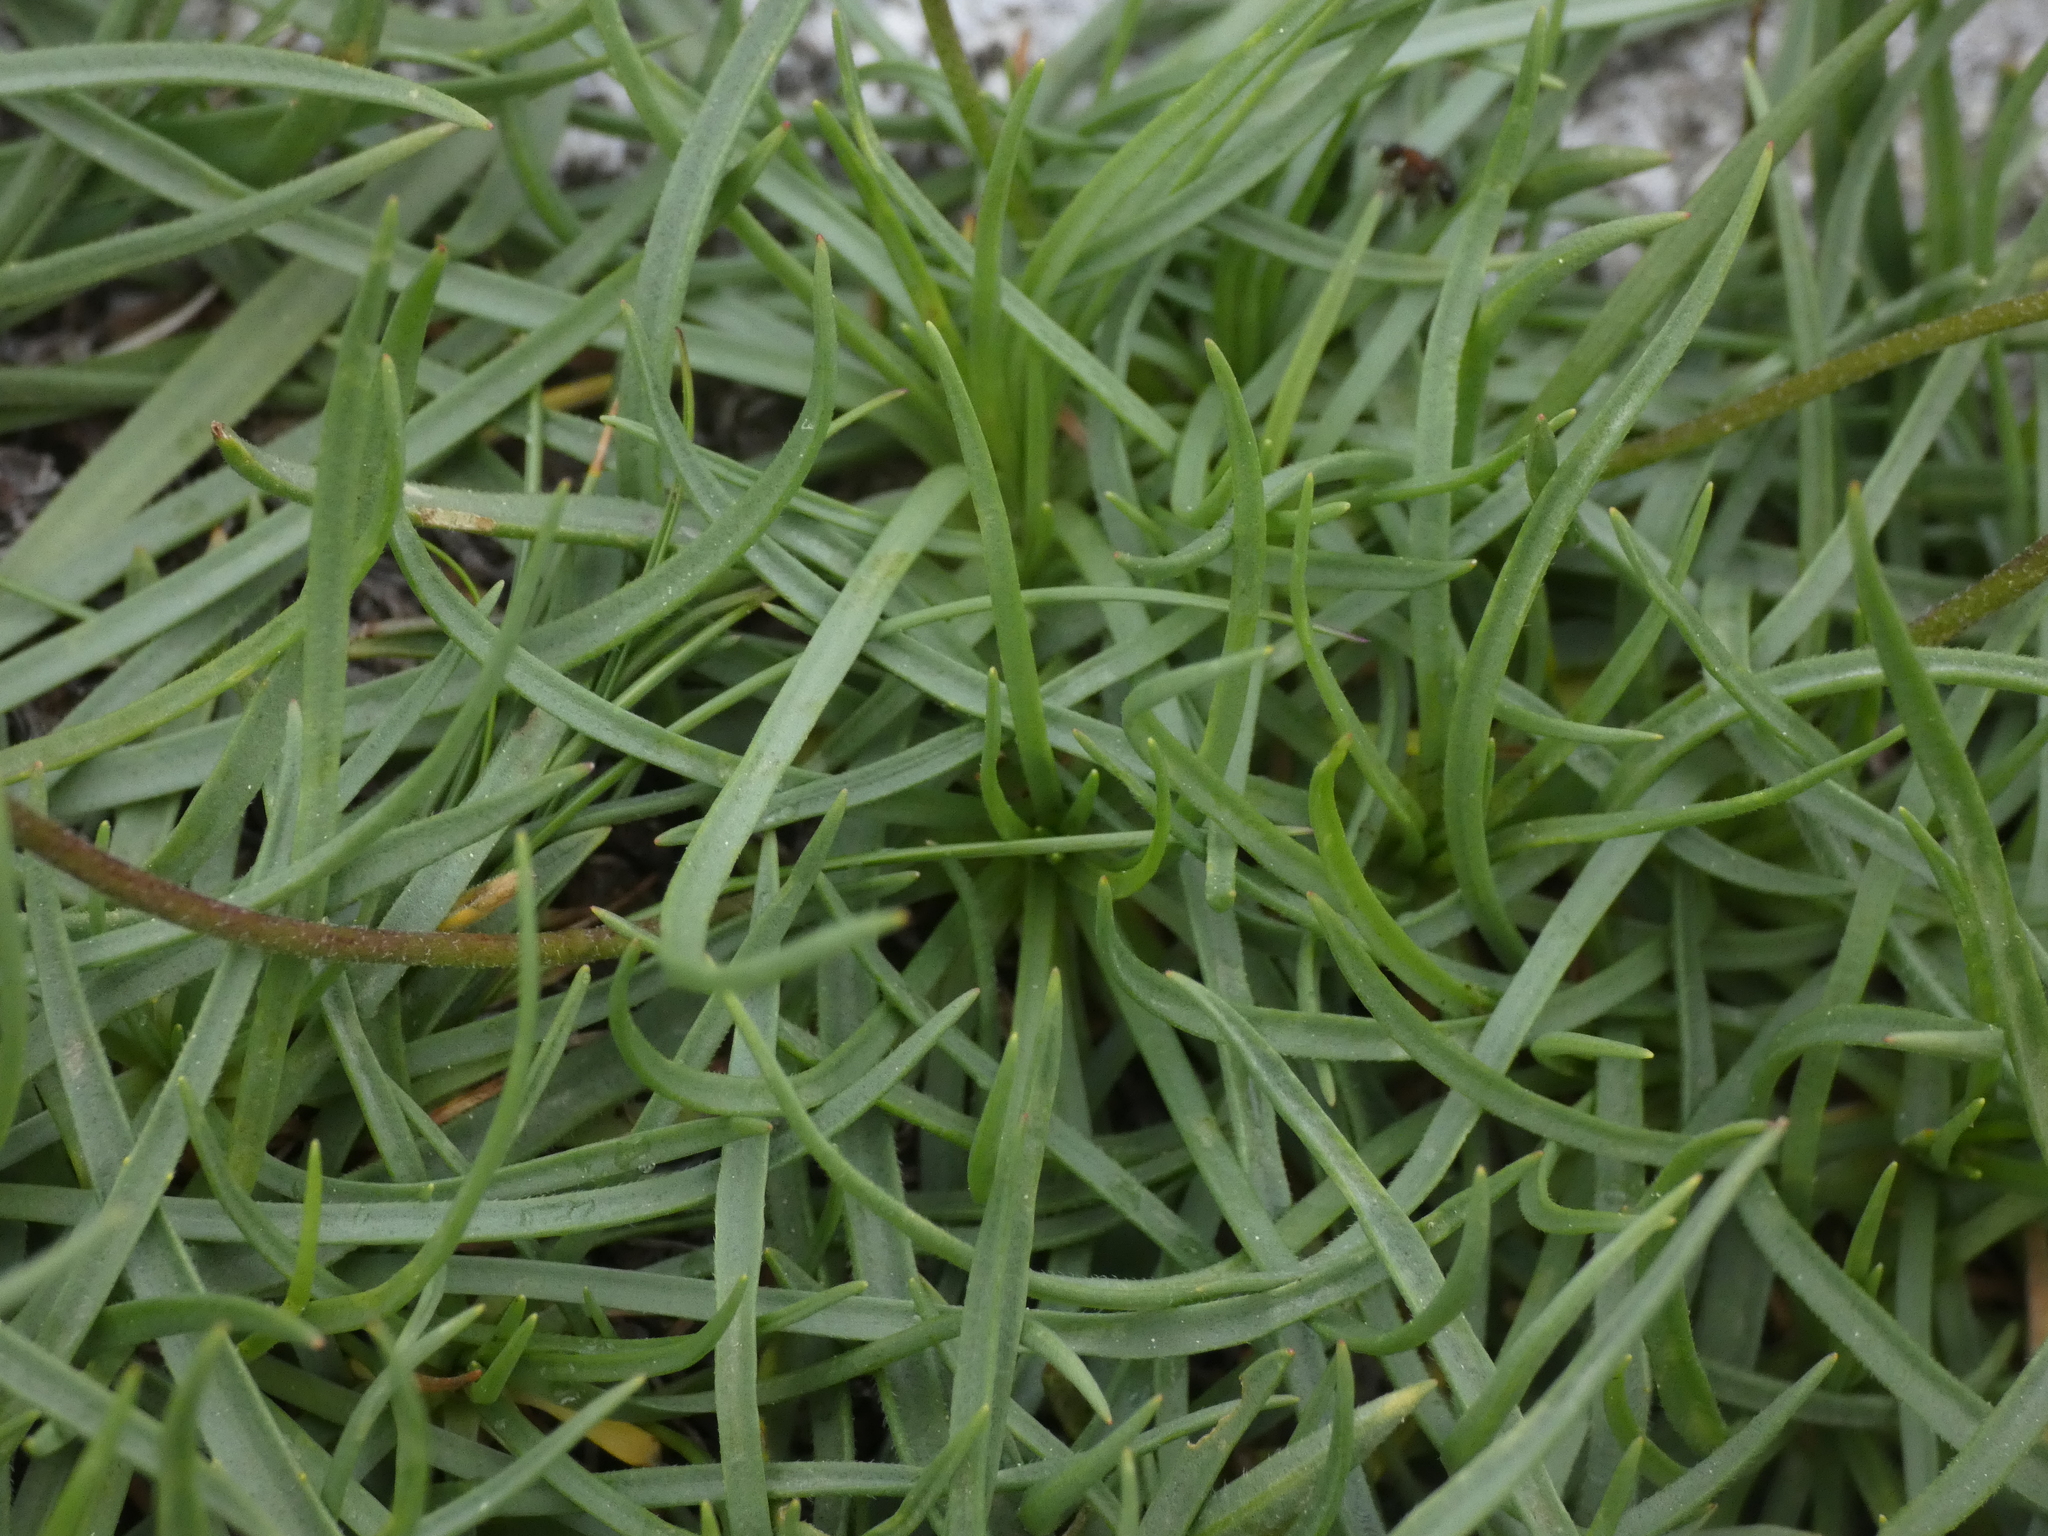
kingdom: Plantae
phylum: Tracheophyta
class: Magnoliopsida
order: Lamiales
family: Plantaginaceae
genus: Plantago
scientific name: Plantago alpina
